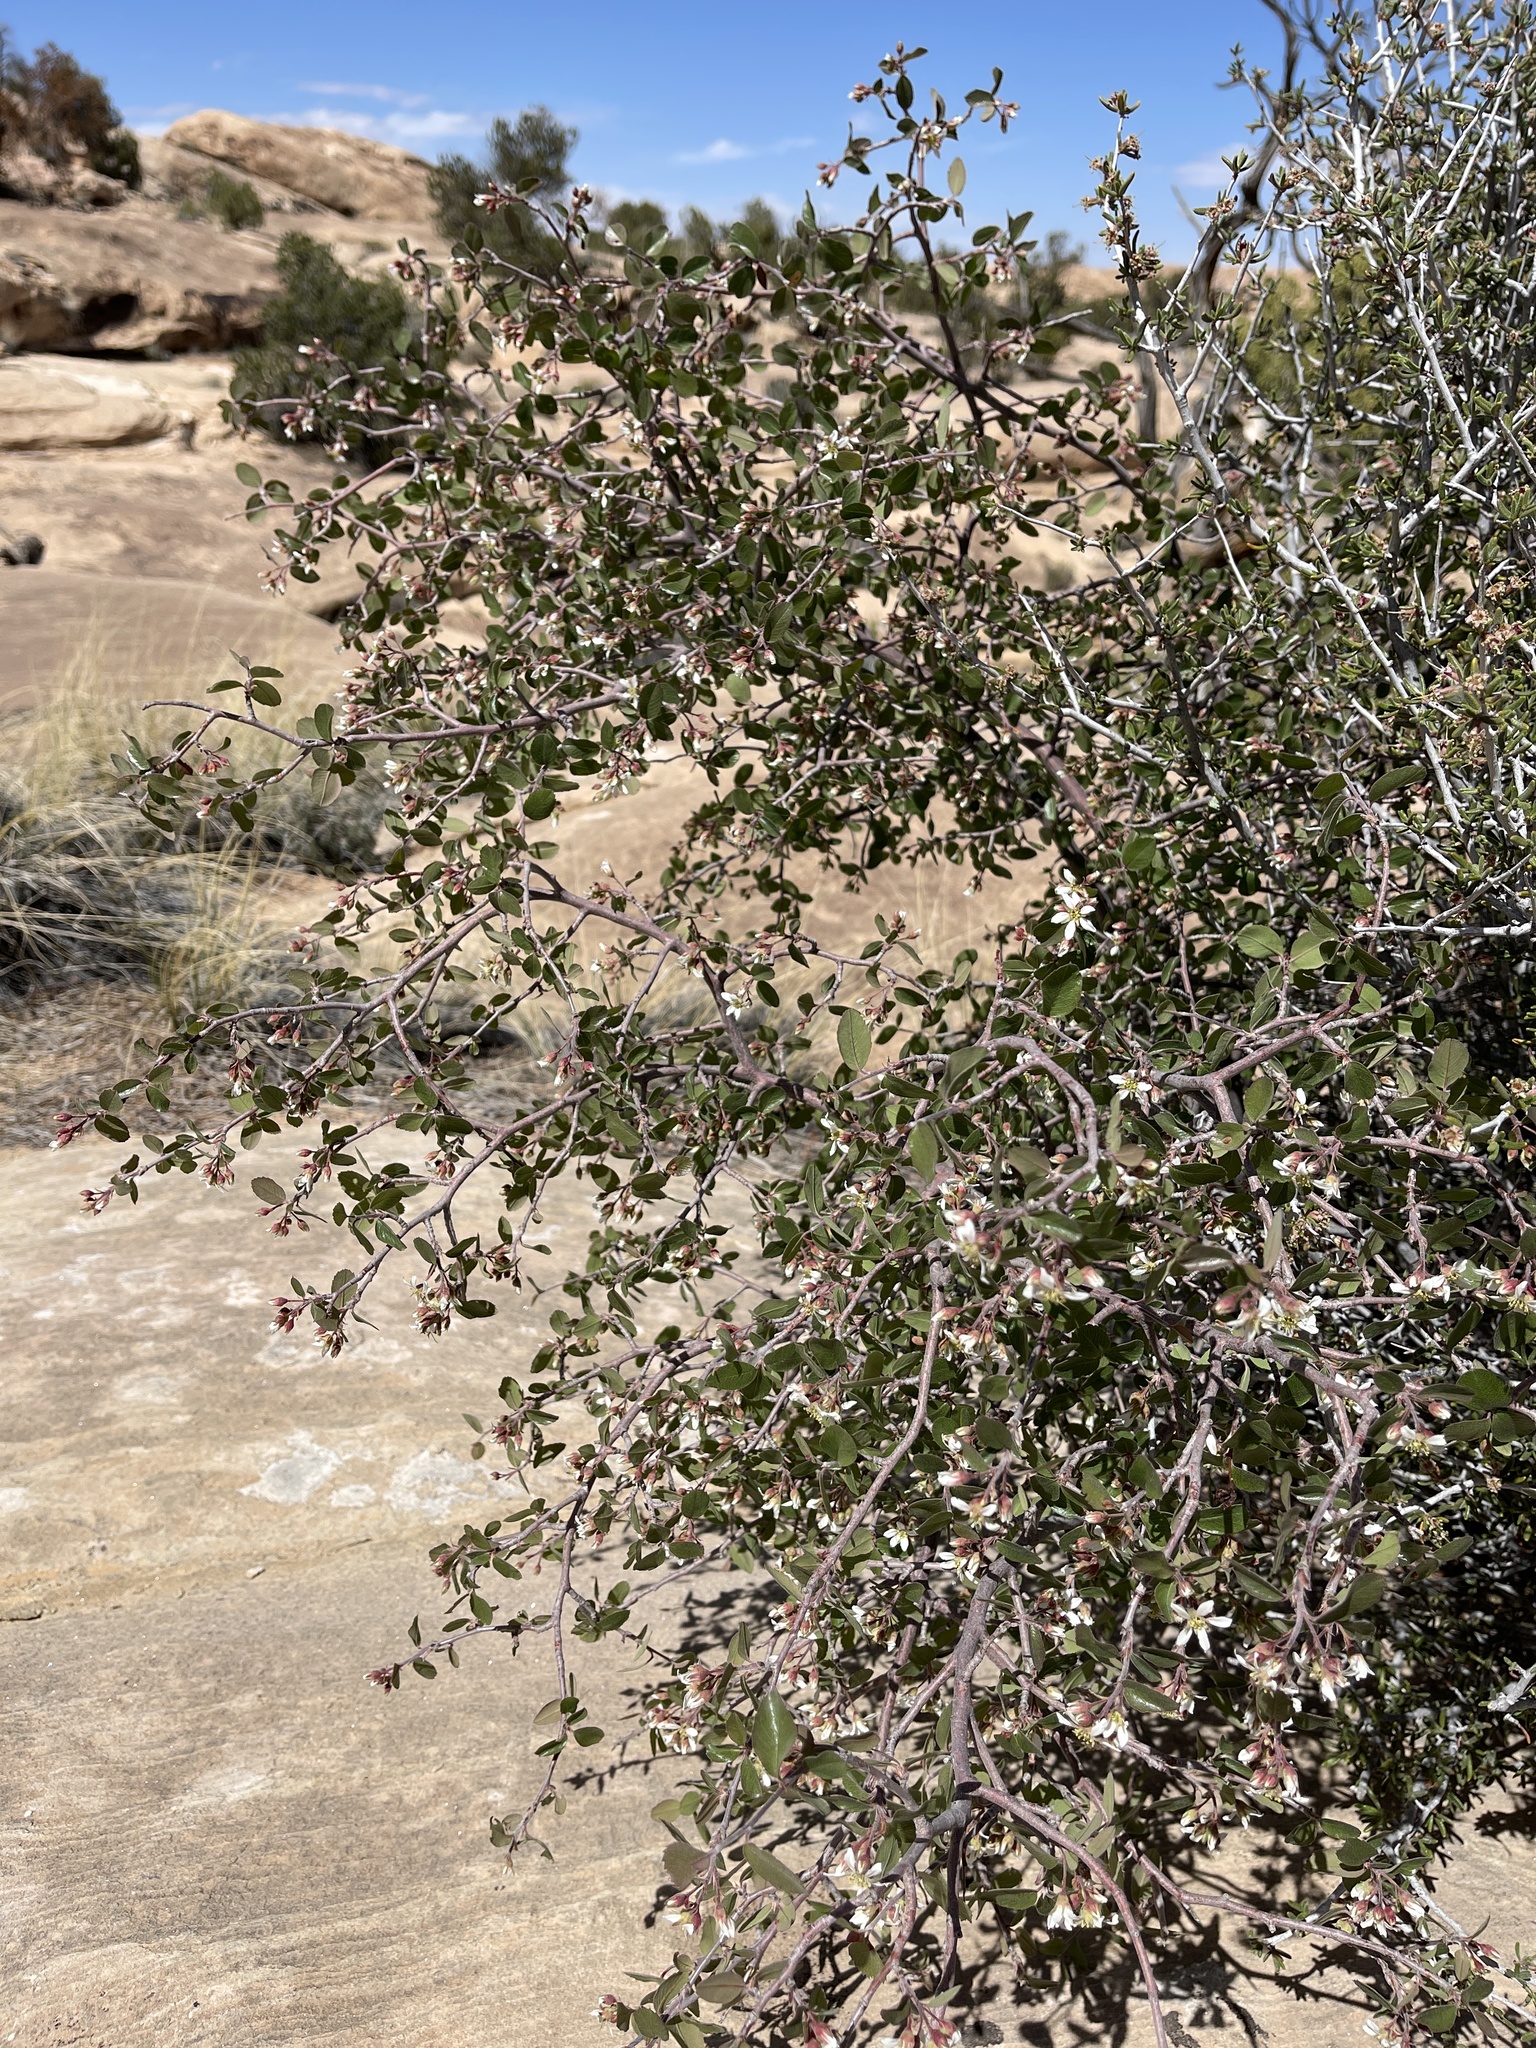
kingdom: Plantae
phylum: Tracheophyta
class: Magnoliopsida
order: Rosales
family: Rosaceae
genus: Amelanchier
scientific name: Amelanchier utahensis
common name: Utah serviceberry
